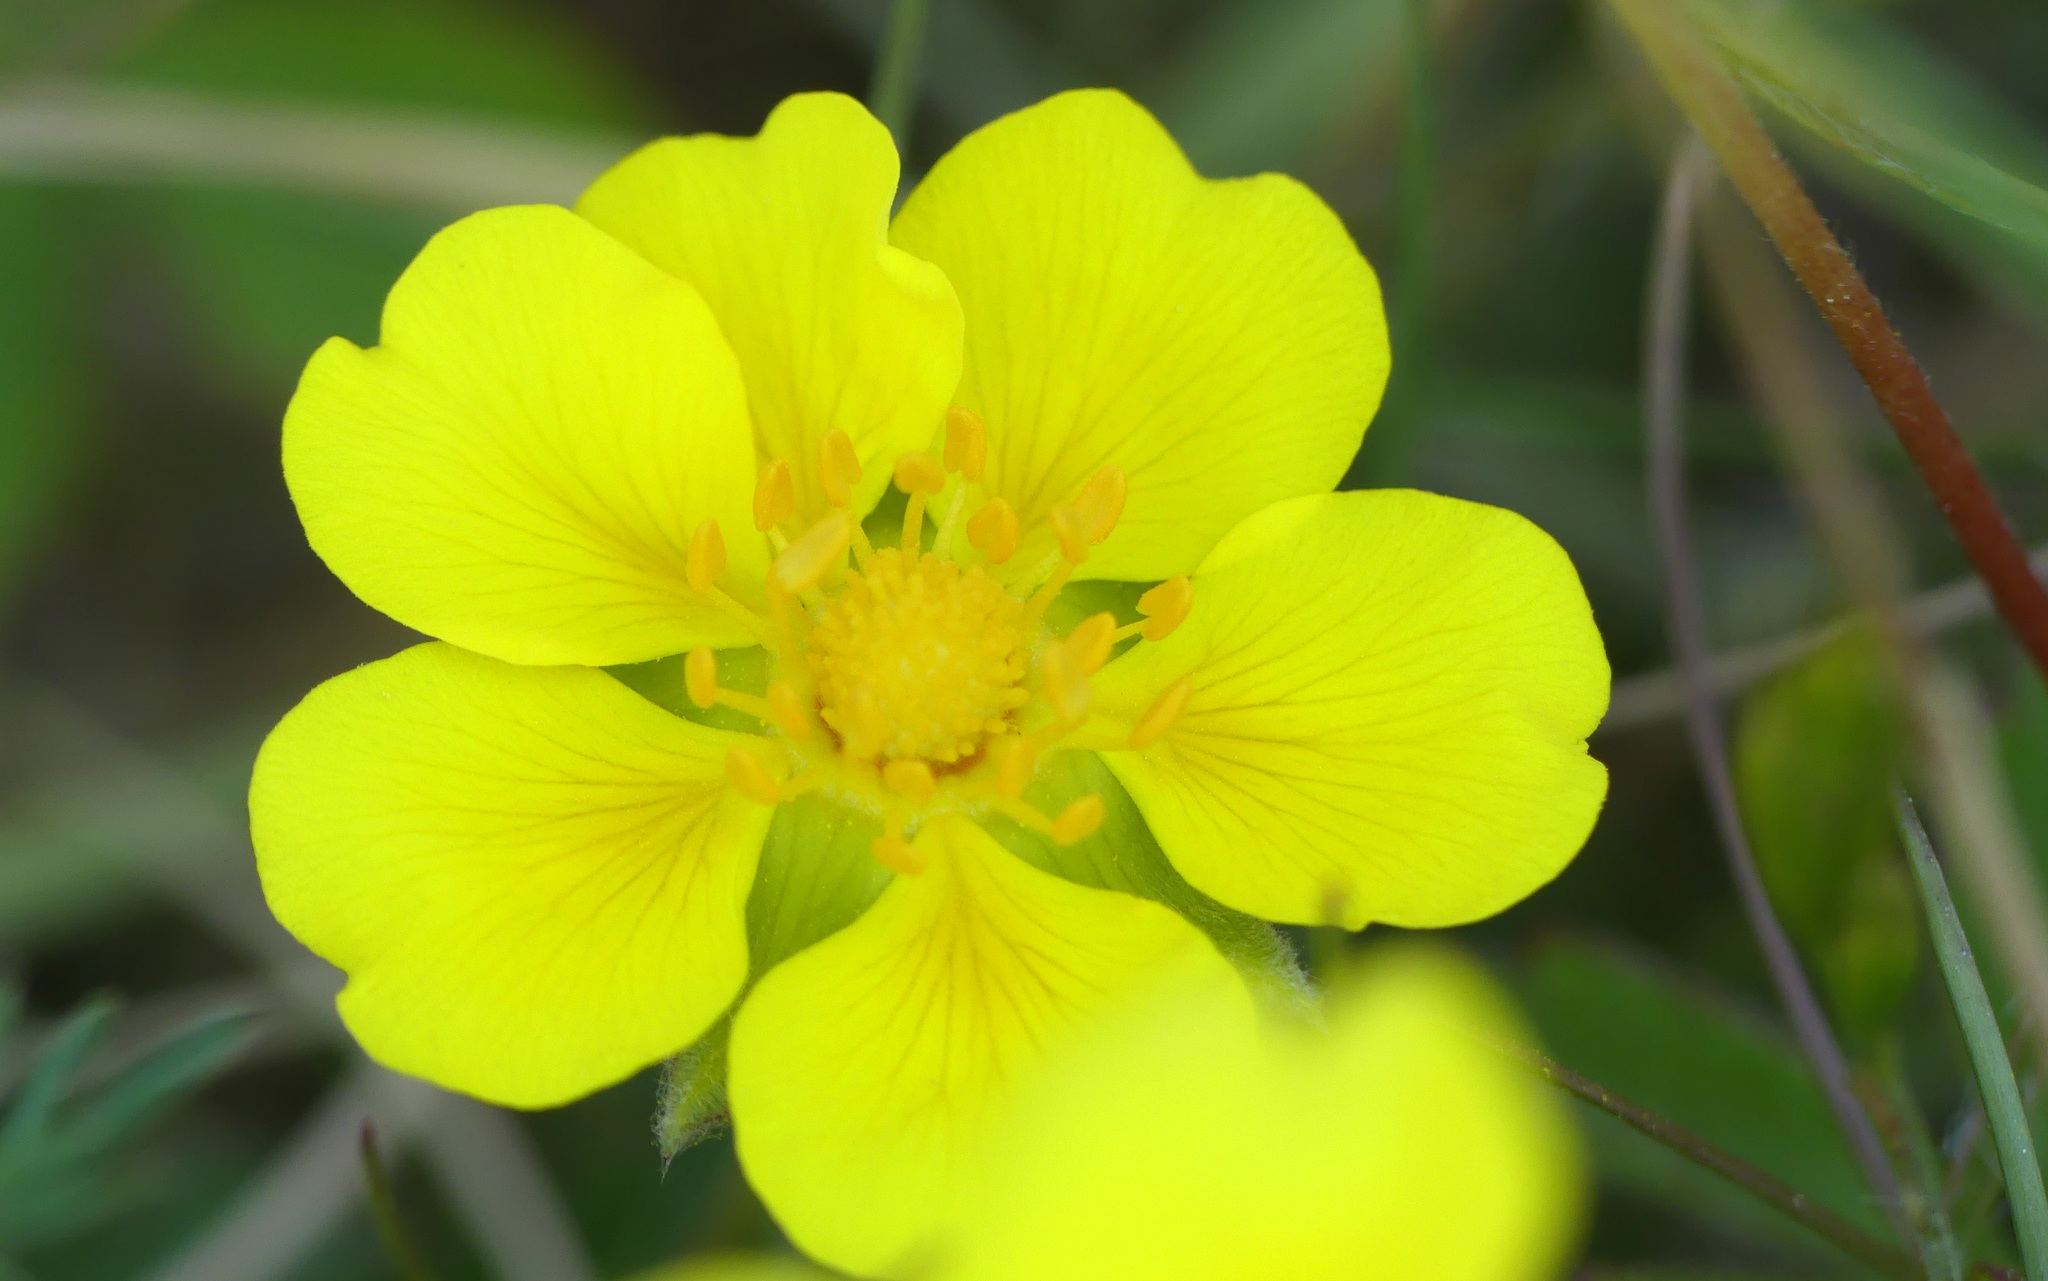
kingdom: Plantae
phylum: Tracheophyta
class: Magnoliopsida
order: Rosales
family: Rosaceae
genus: Potentilla
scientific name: Potentilla reptans
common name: Creeping cinquefoil
